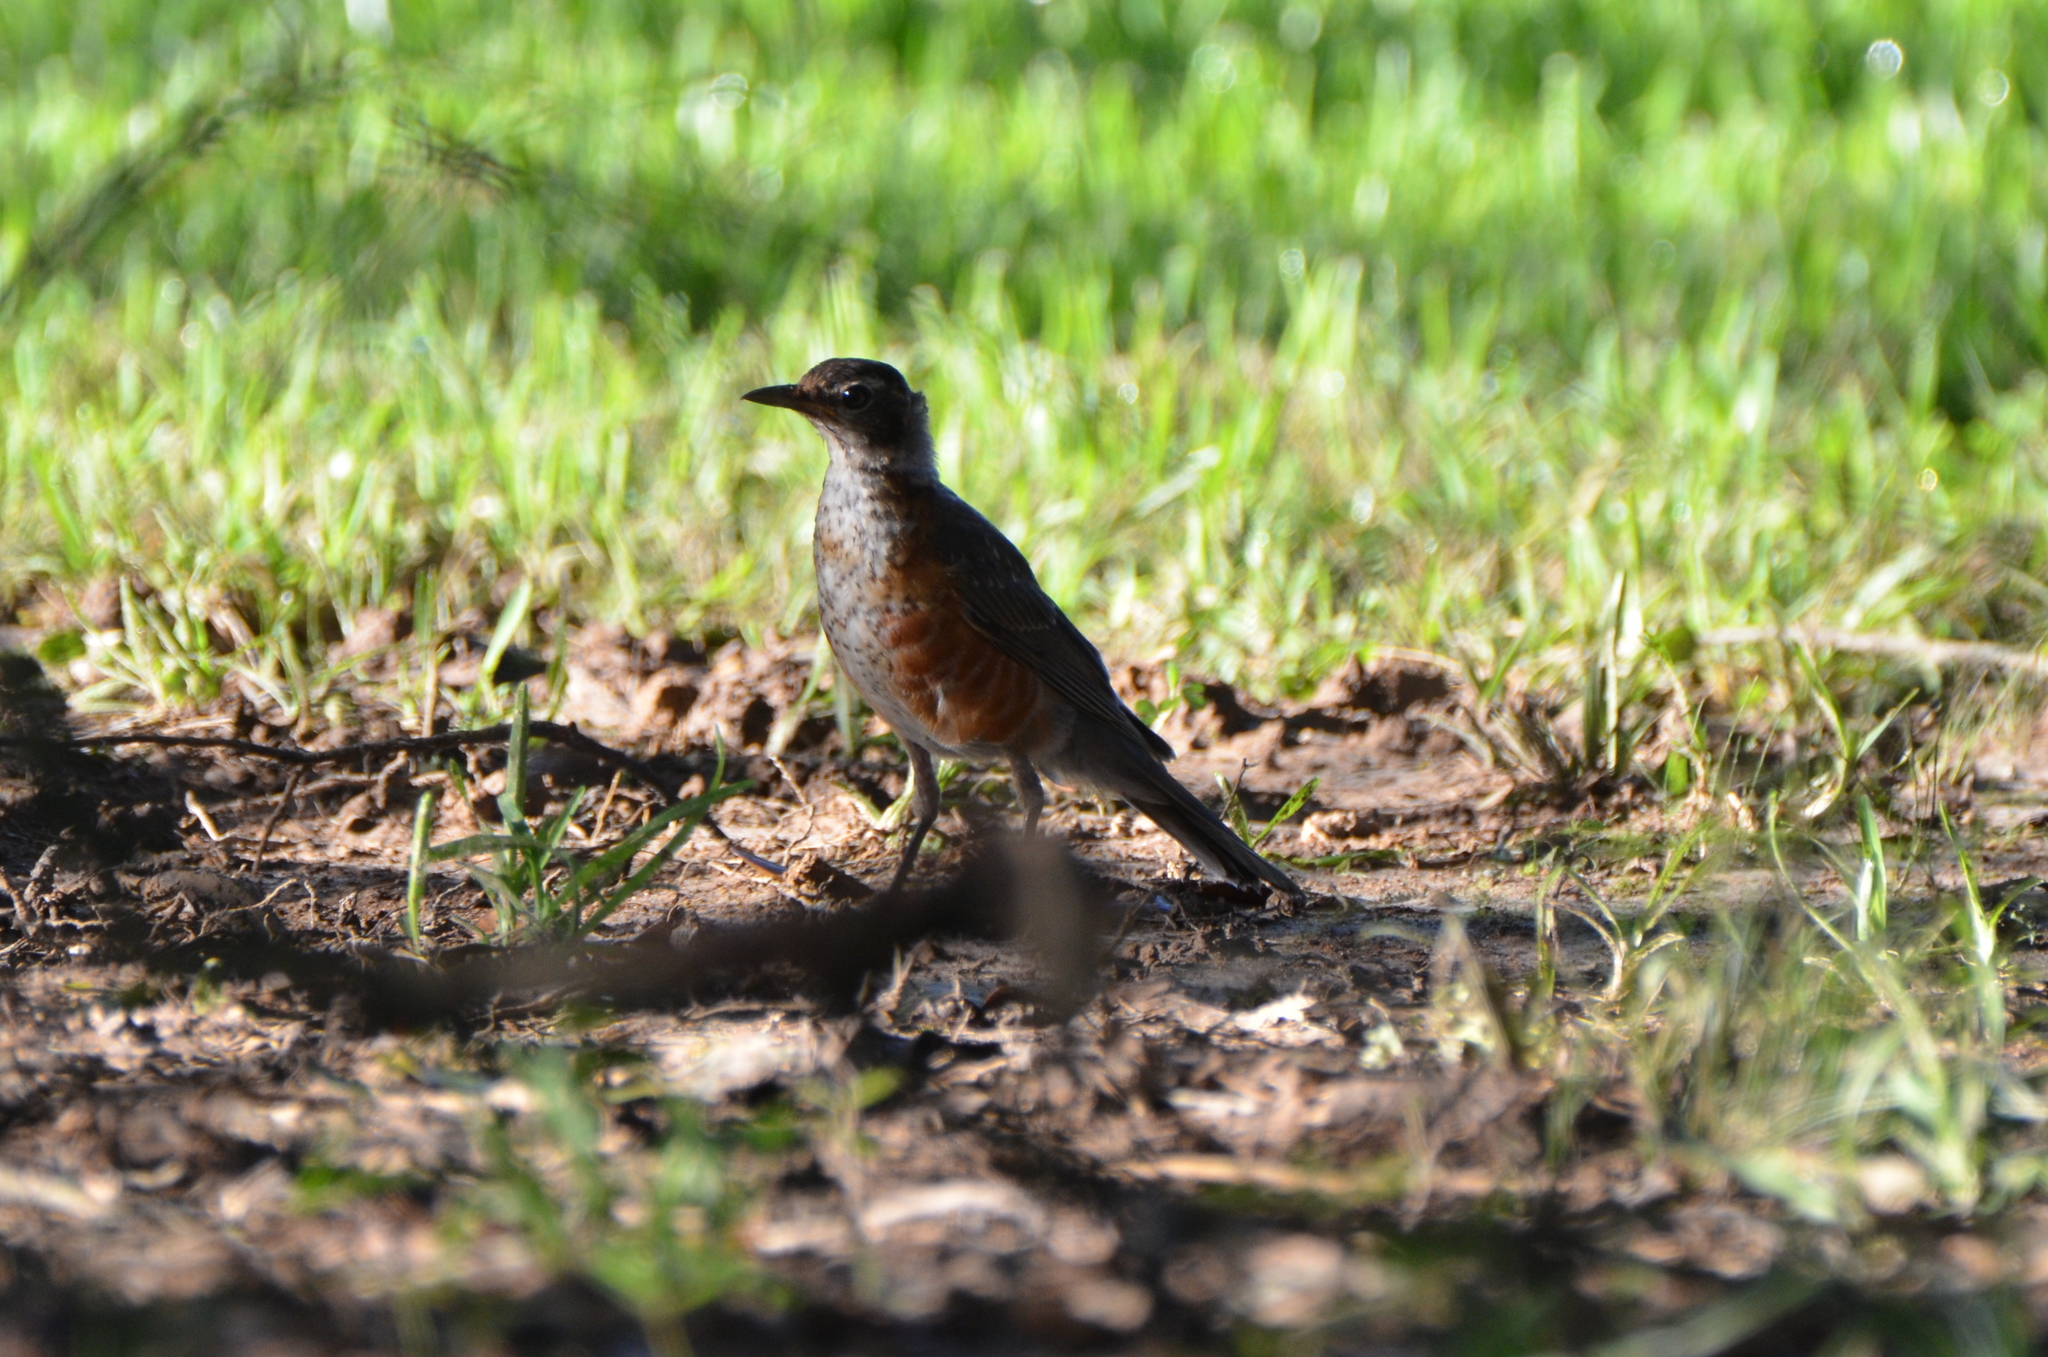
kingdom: Animalia
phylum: Chordata
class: Aves
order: Passeriformes
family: Turdidae
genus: Turdus
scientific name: Turdus migratorius
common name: American robin
